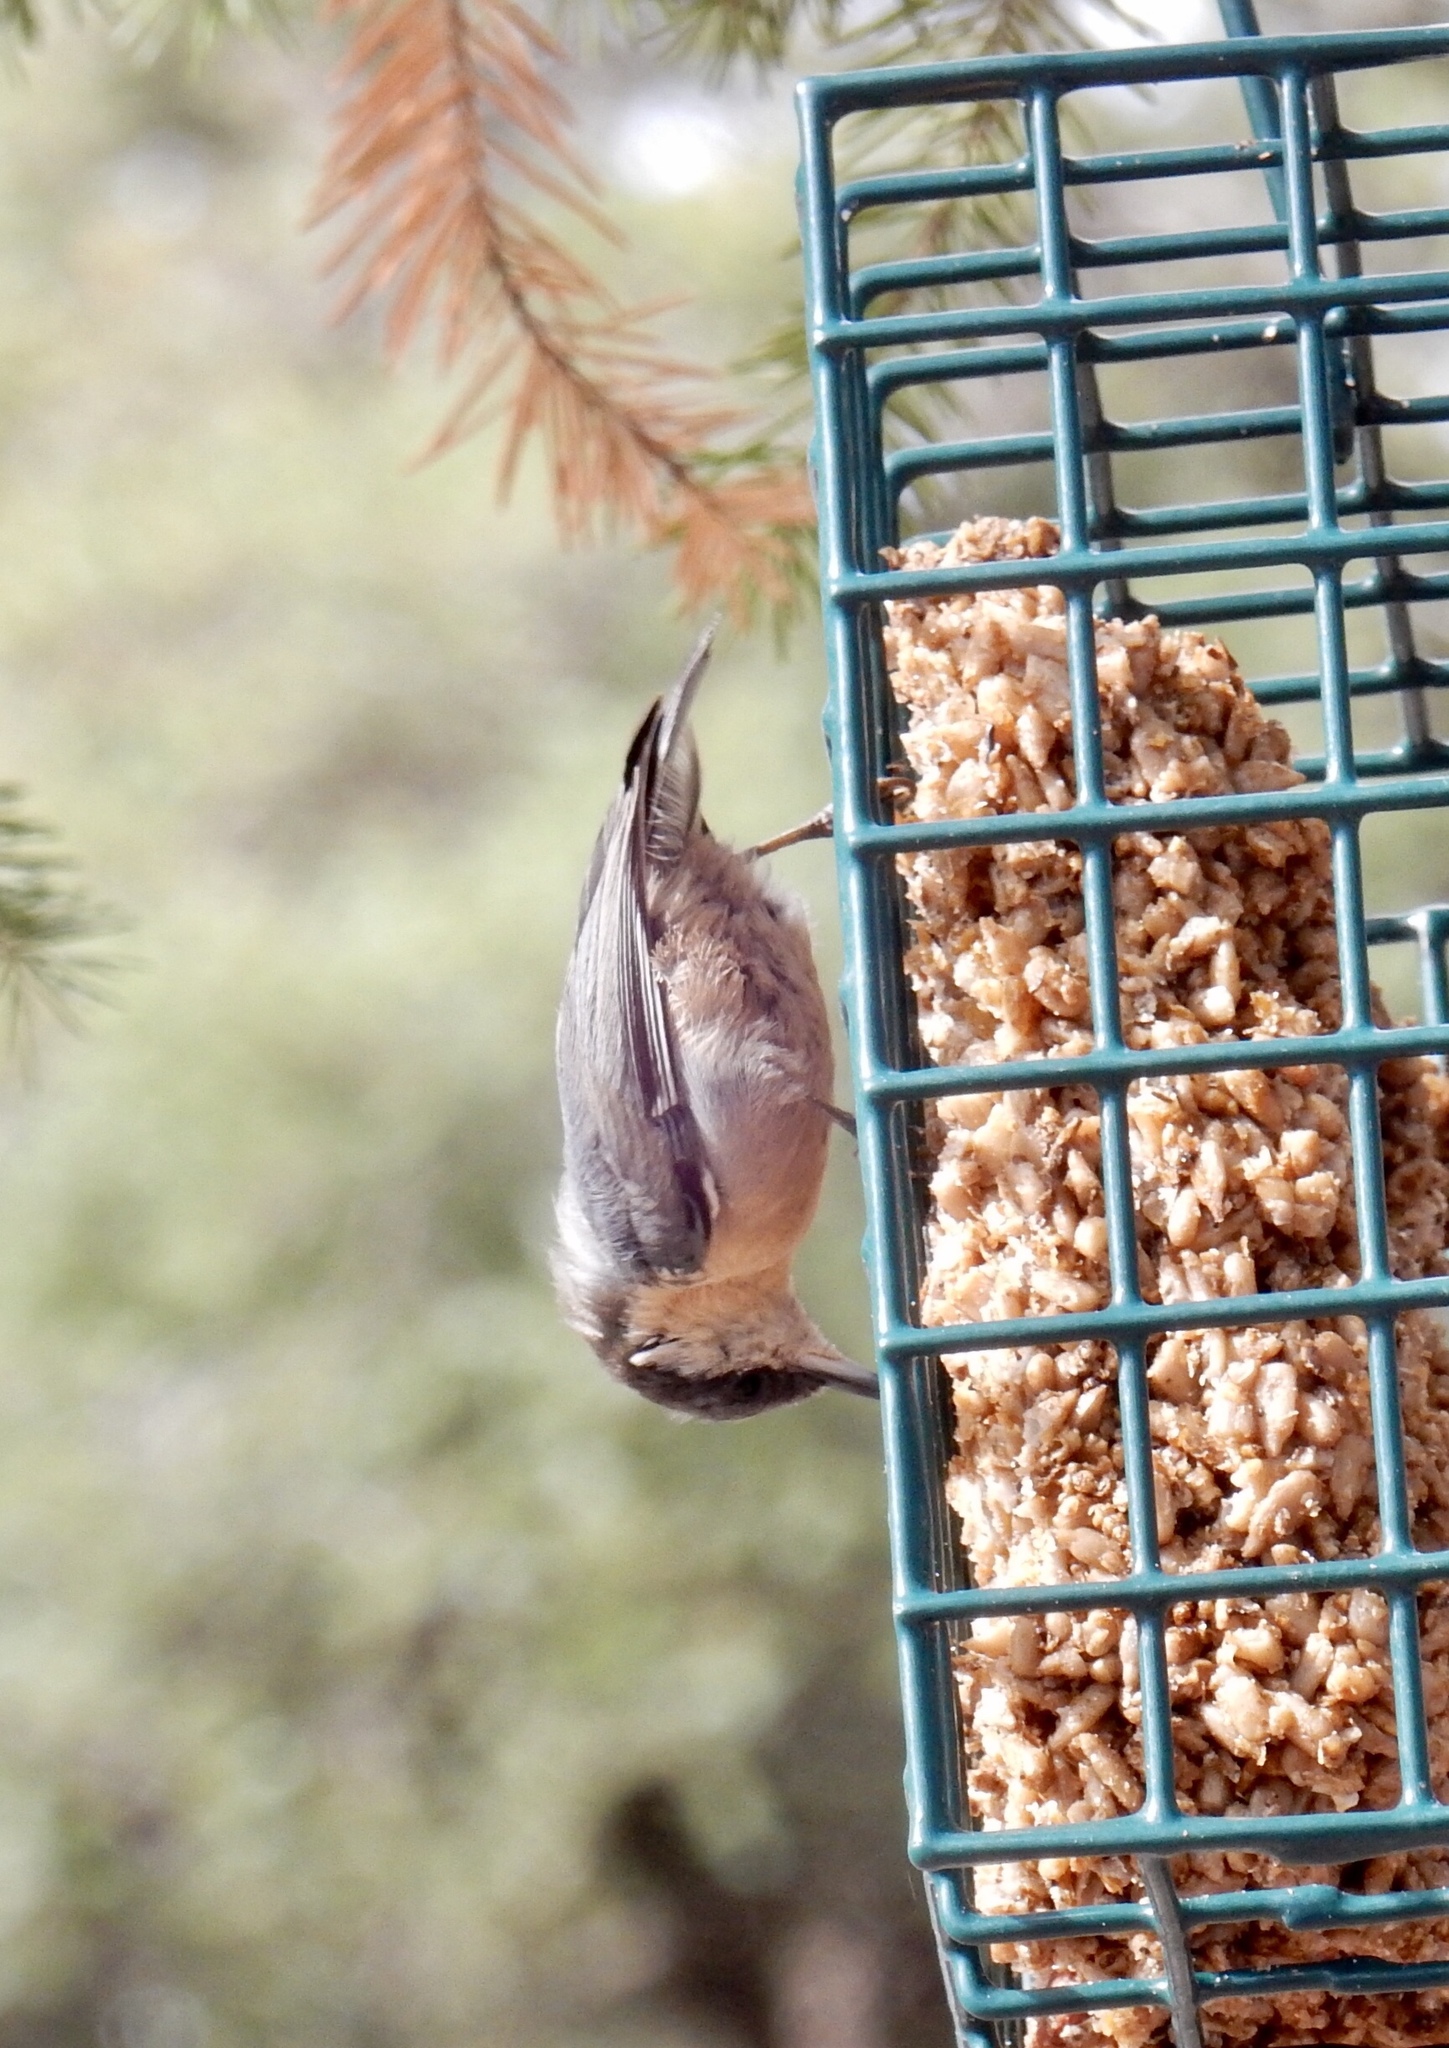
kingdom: Animalia
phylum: Chordata
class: Aves
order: Passeriformes
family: Sittidae
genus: Sitta
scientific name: Sitta pygmaea
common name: Pygmy nuthatch
